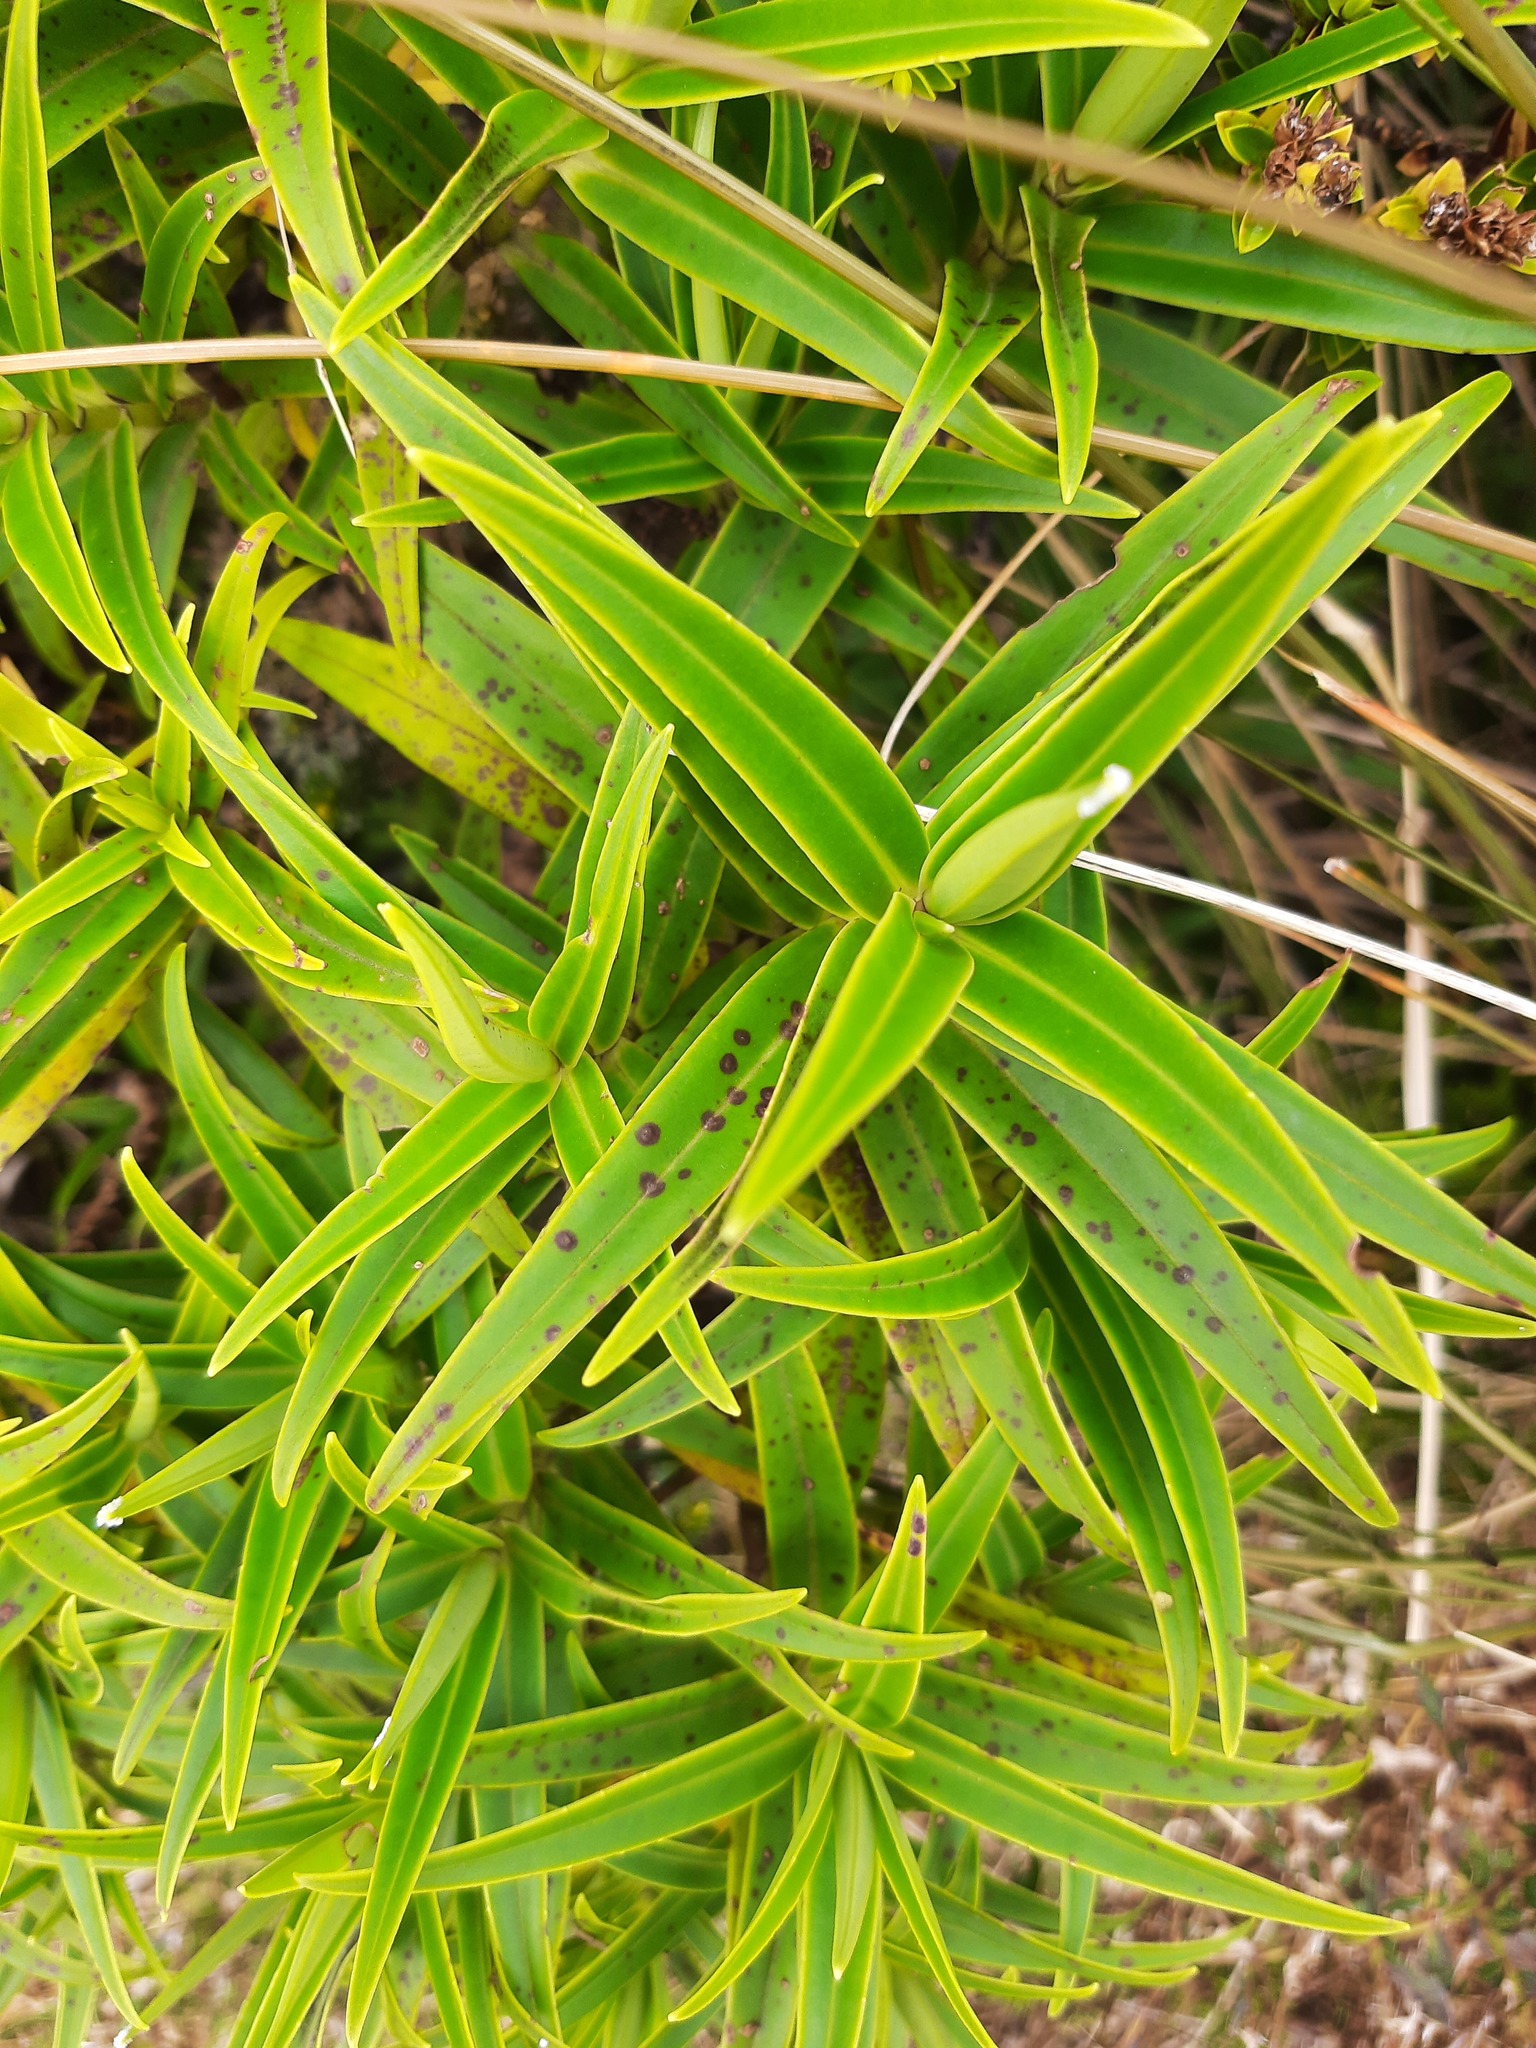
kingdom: Plantae
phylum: Tracheophyta
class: Magnoliopsida
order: Lamiales
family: Plantaginaceae
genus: Veronica
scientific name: Veronica stricta
